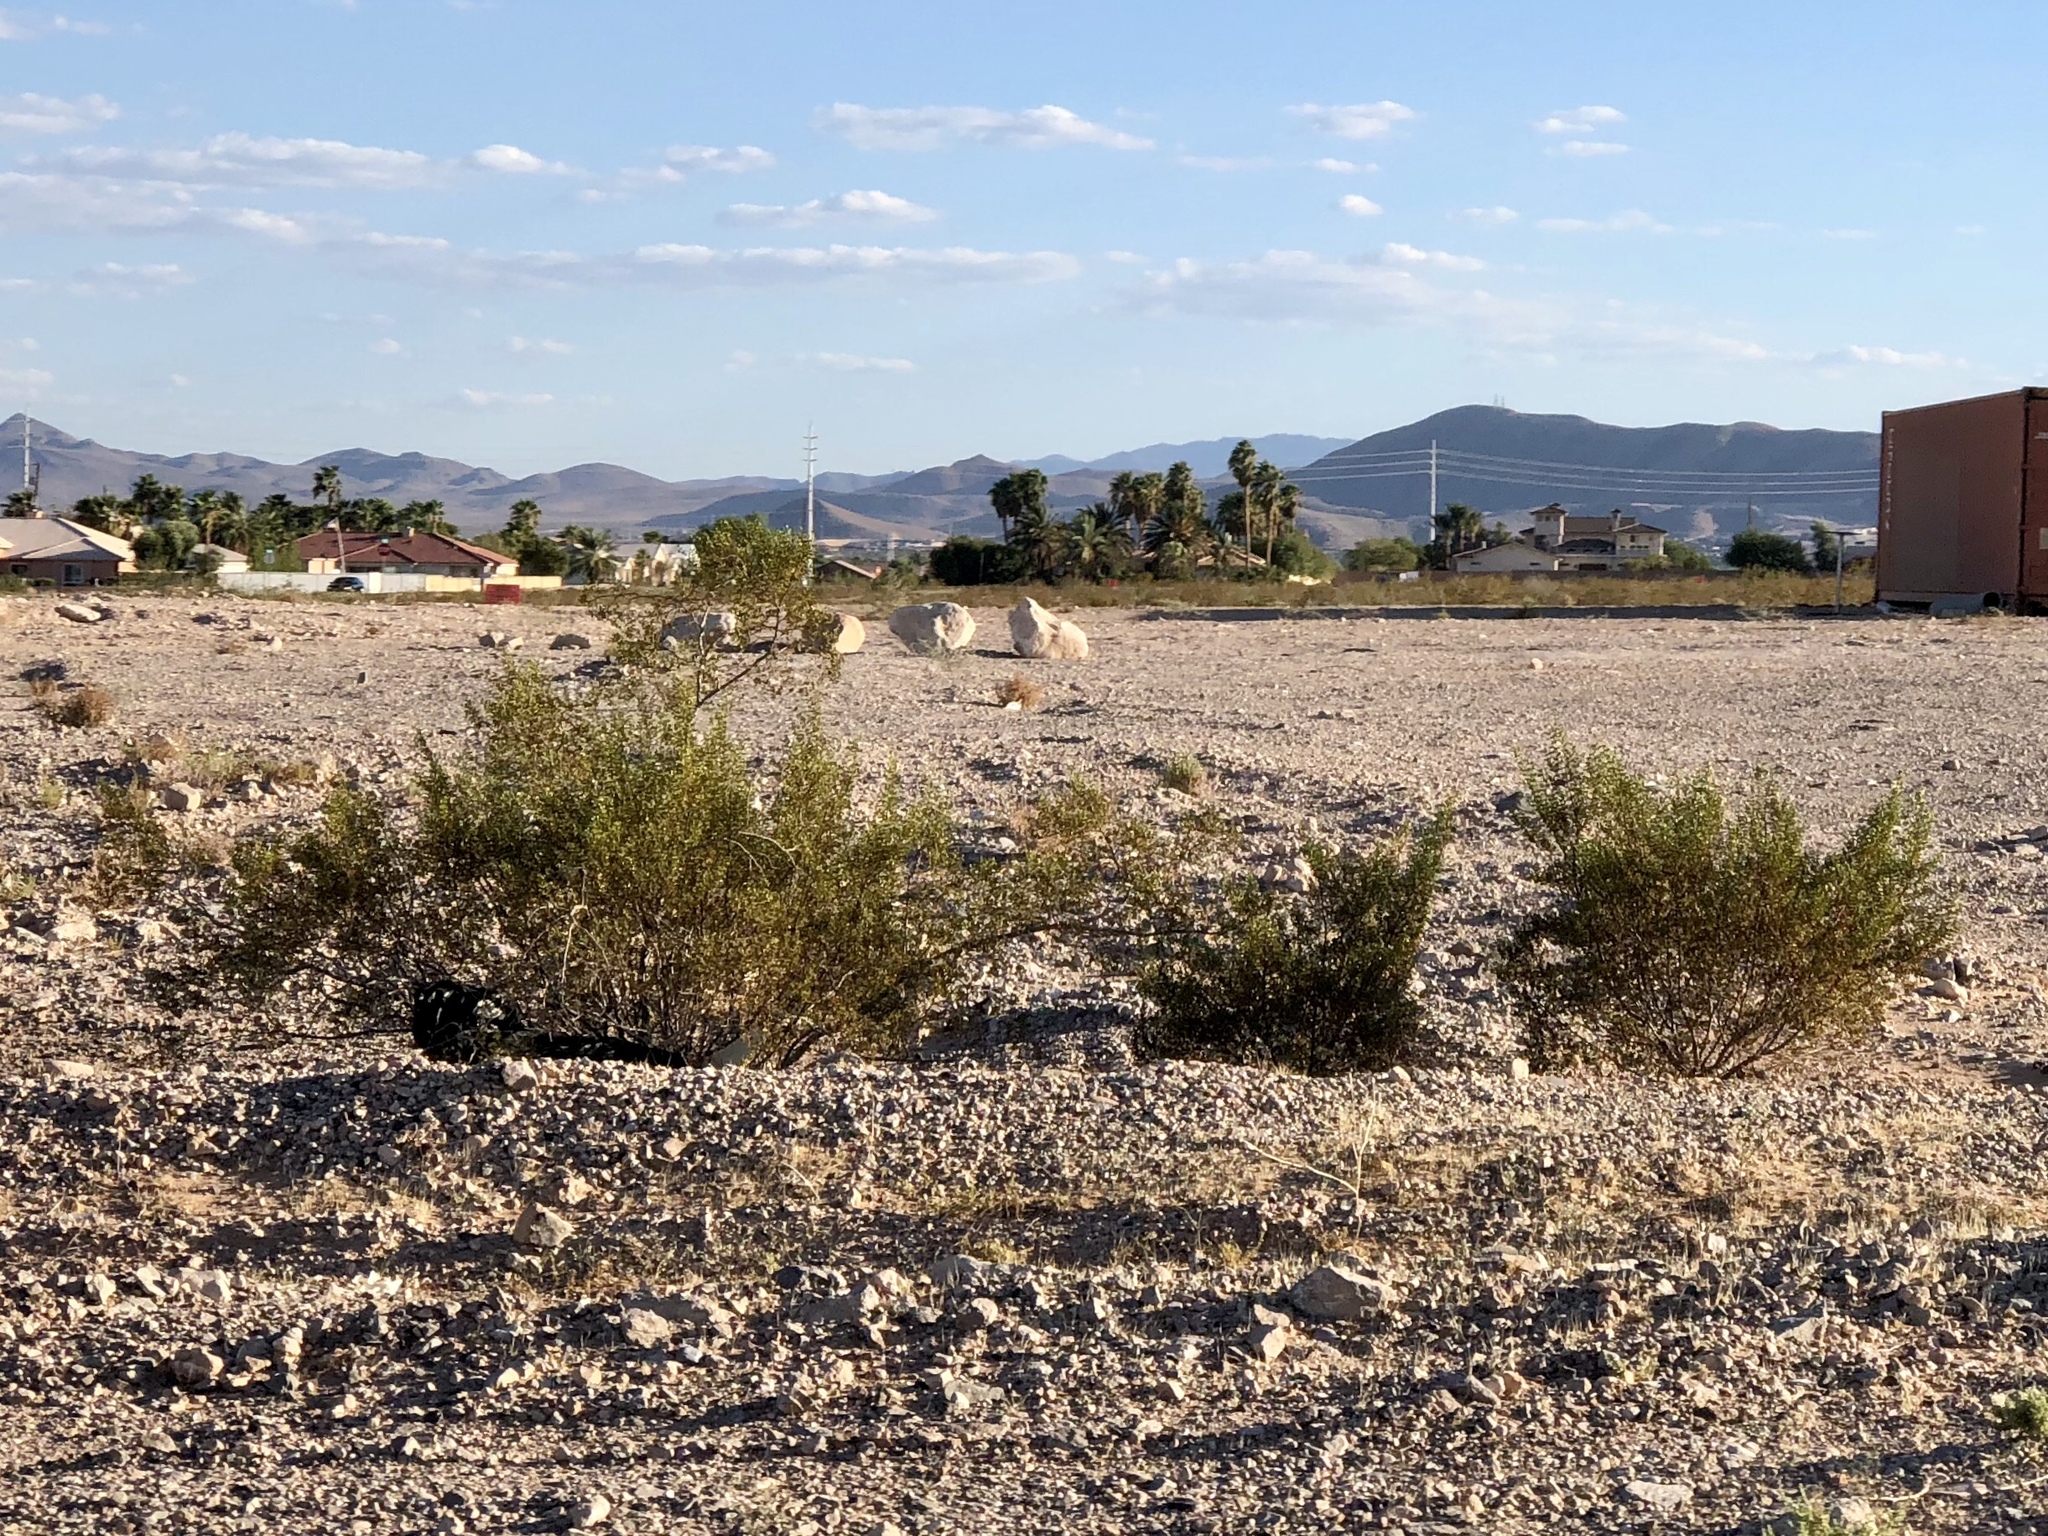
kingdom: Plantae
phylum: Tracheophyta
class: Magnoliopsida
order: Zygophyllales
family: Zygophyllaceae
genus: Larrea
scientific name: Larrea tridentata
